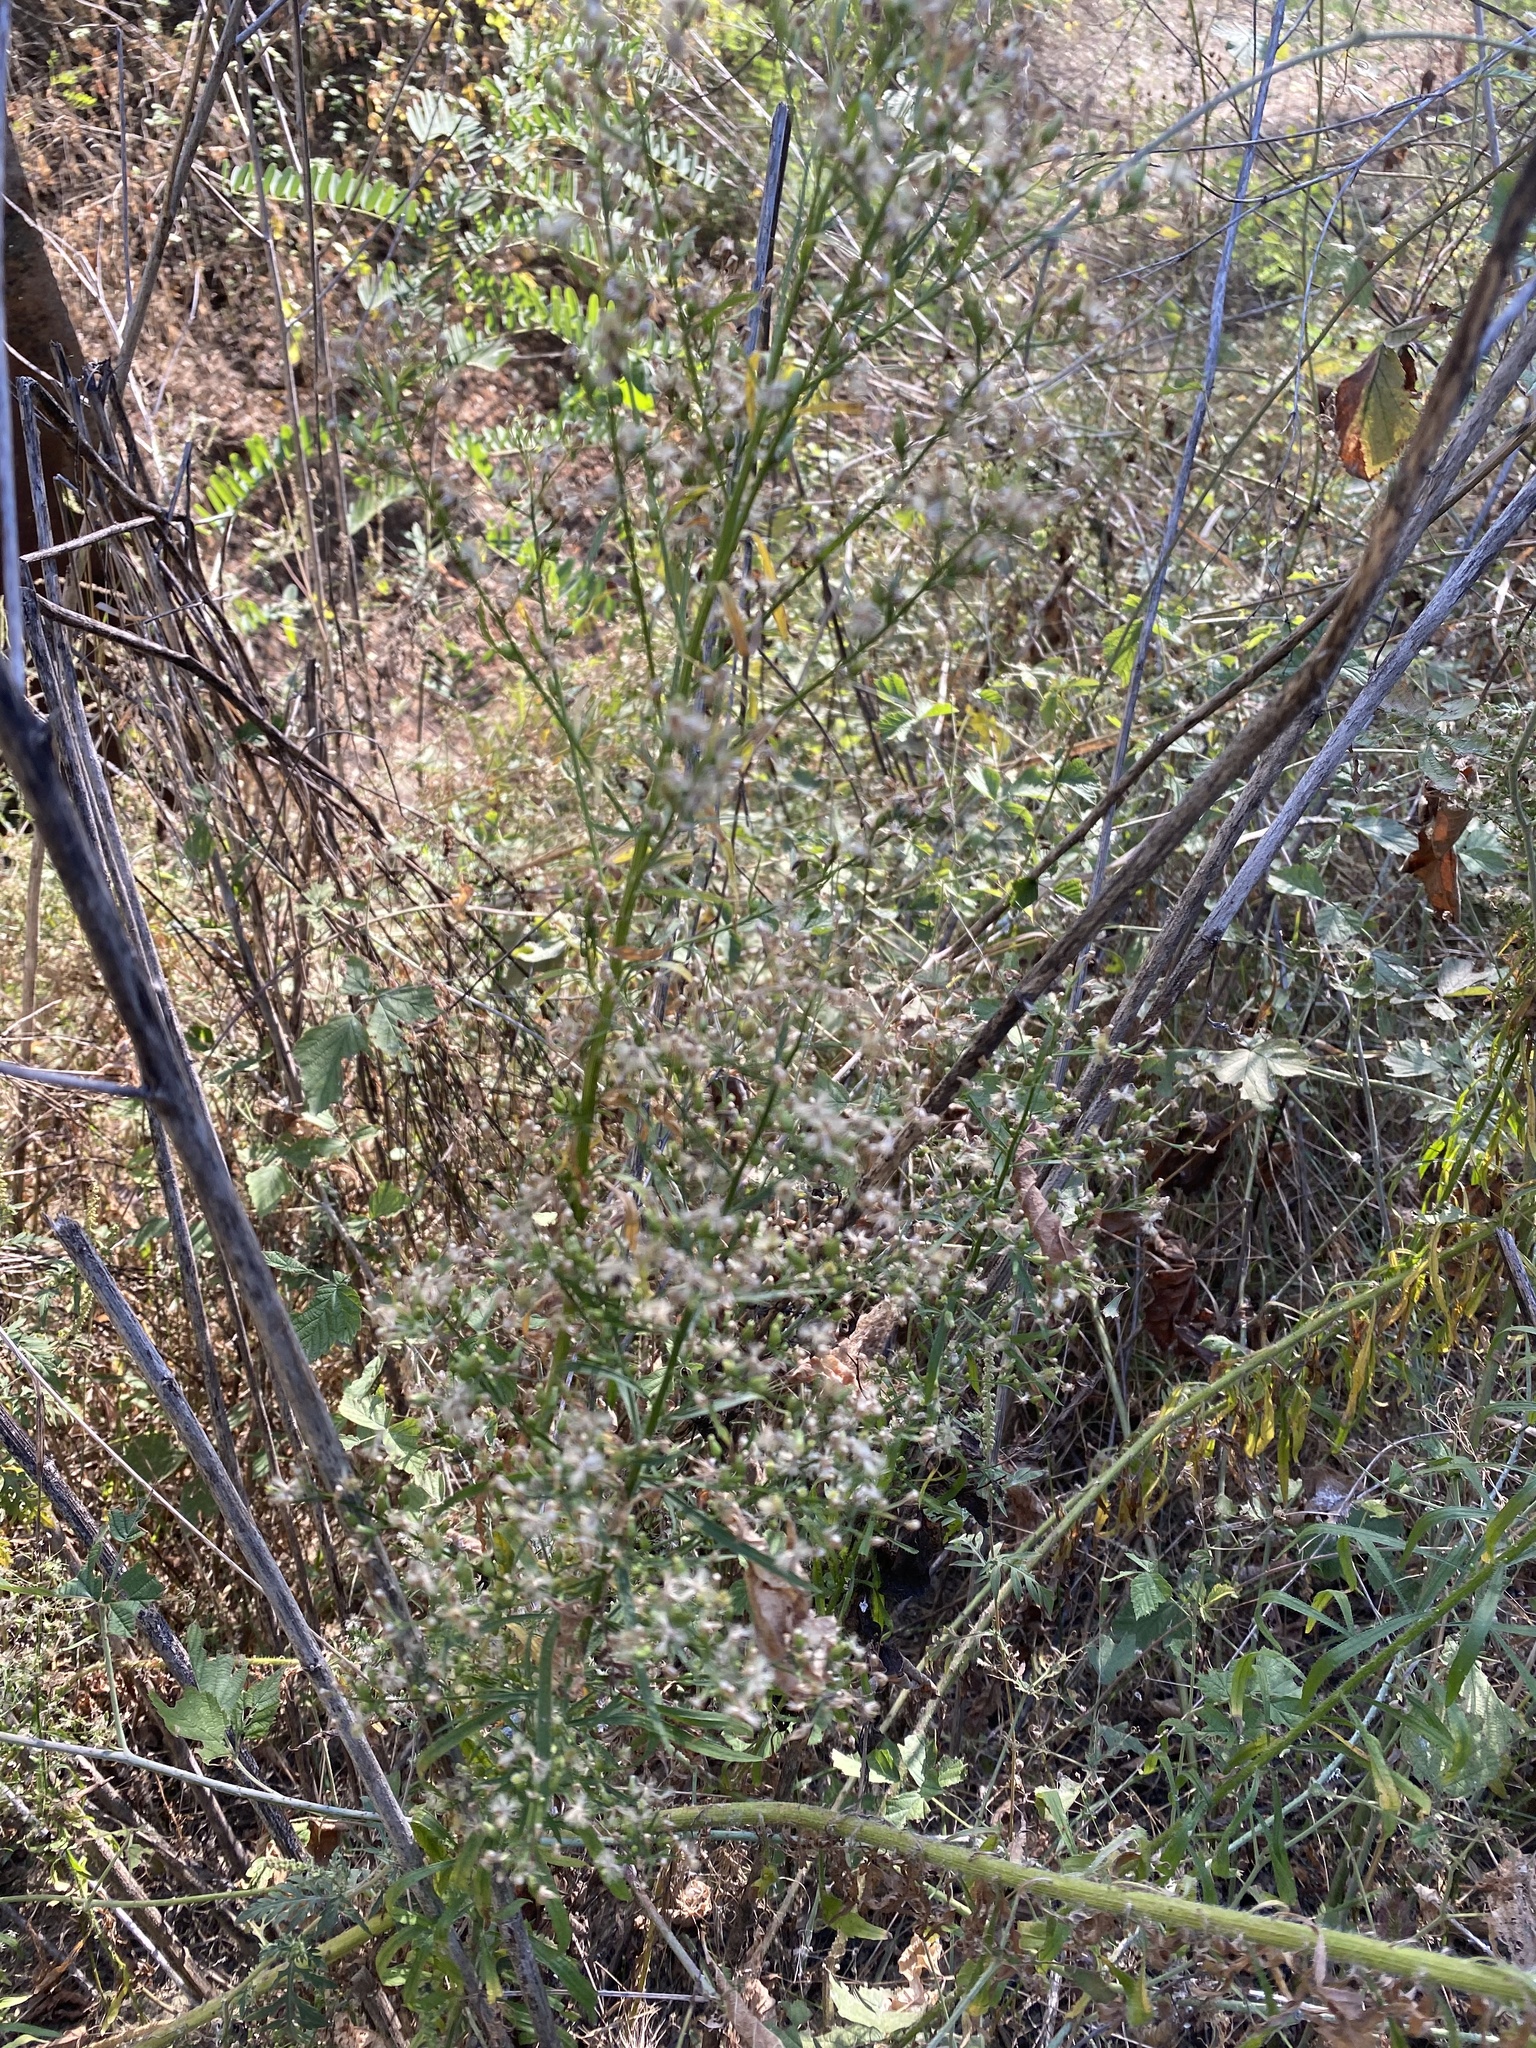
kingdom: Plantae
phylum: Tracheophyta
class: Magnoliopsida
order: Asterales
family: Asteraceae
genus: Erigeron
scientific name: Erigeron canadensis
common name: Canadian fleabane
